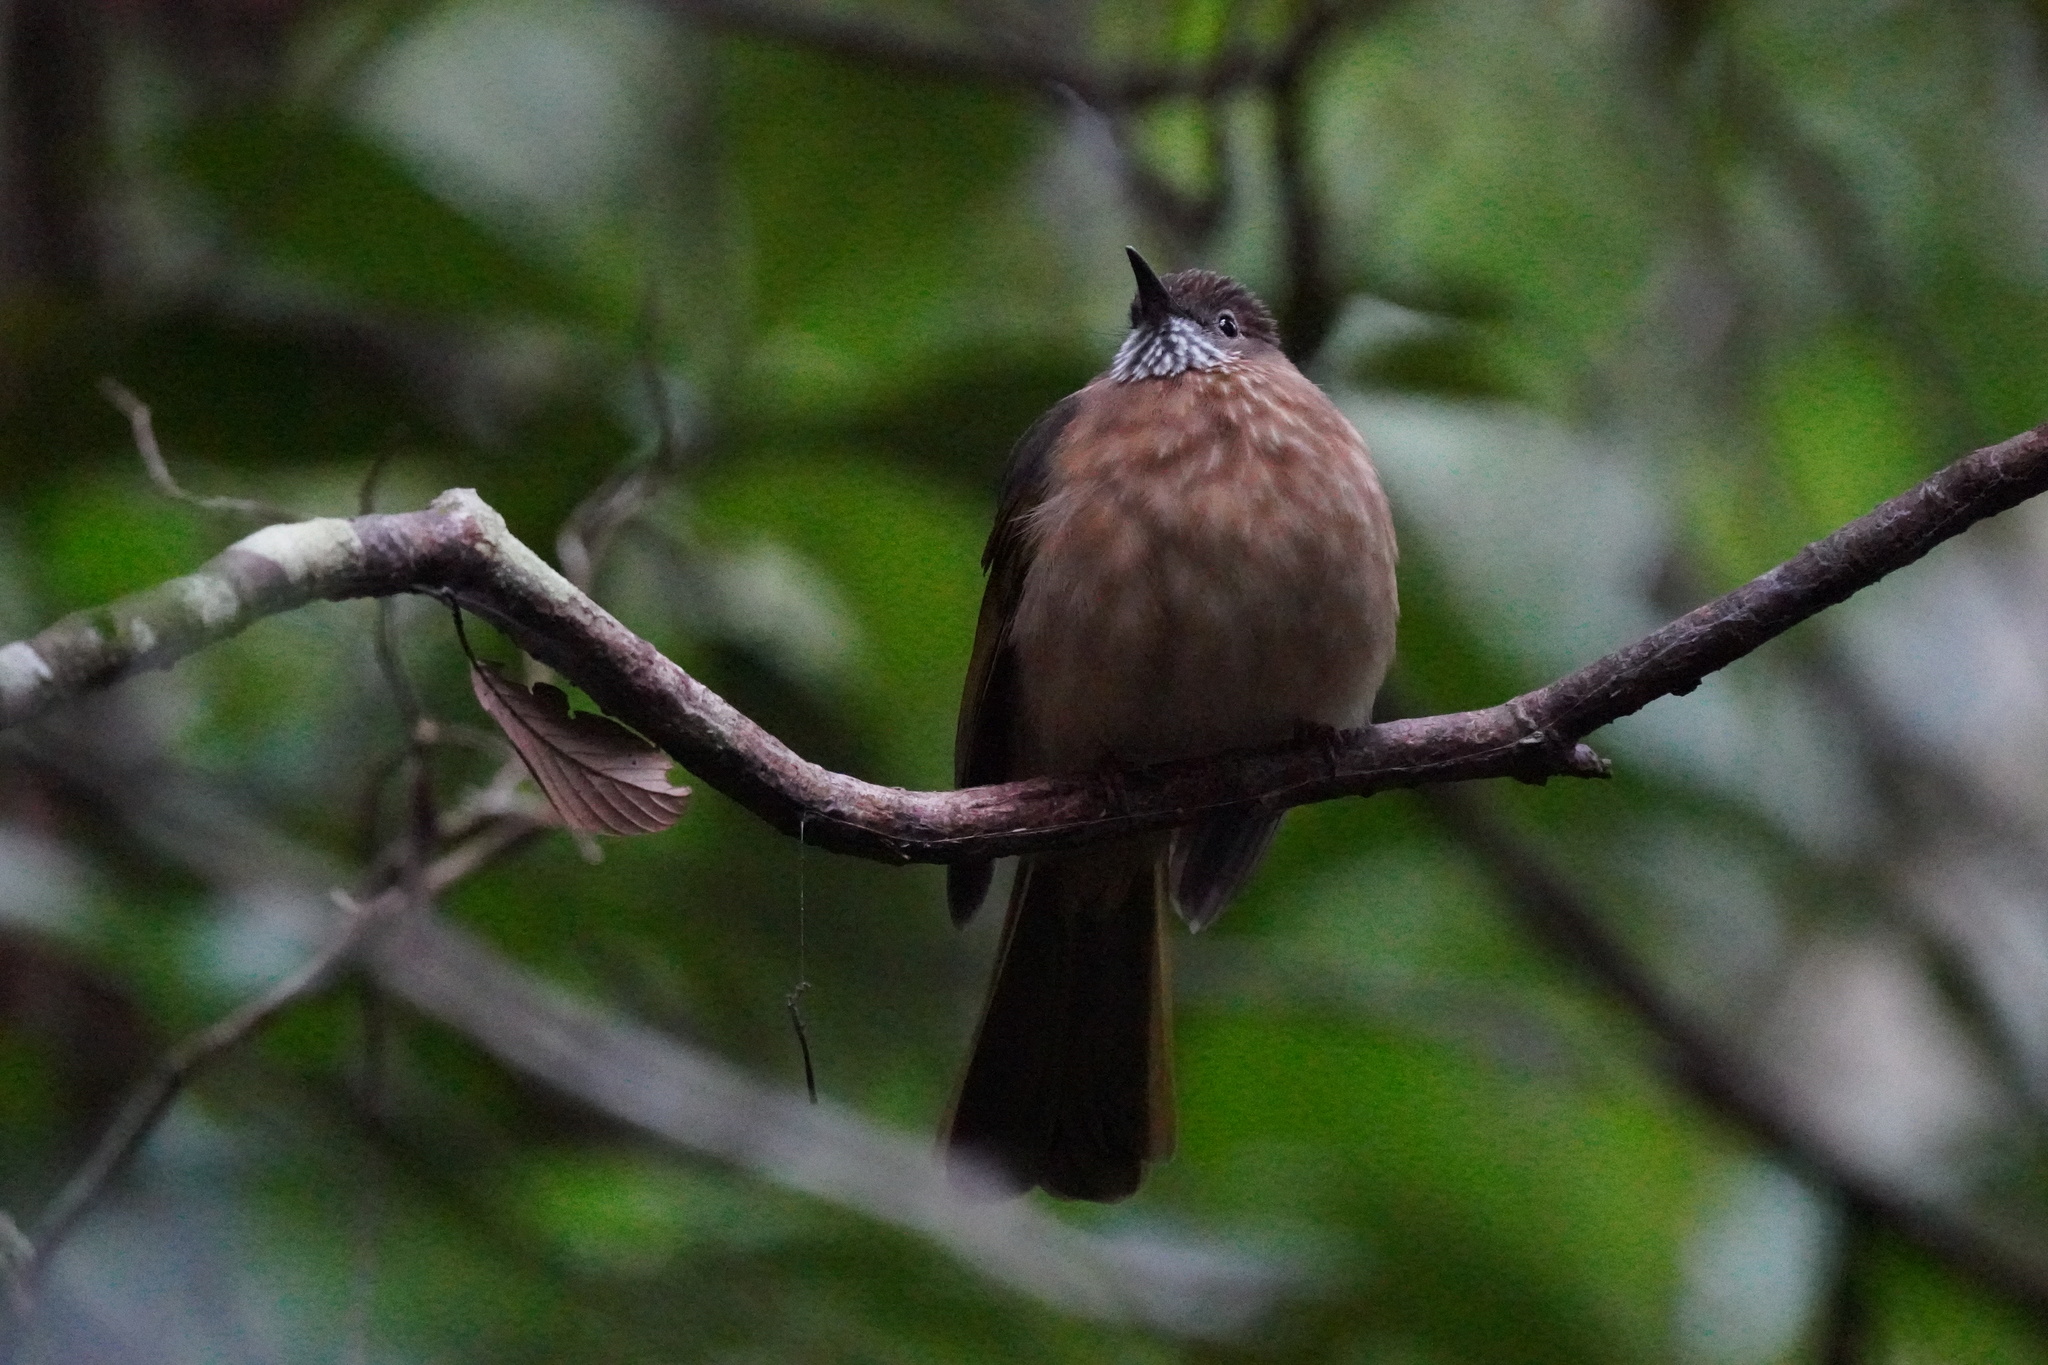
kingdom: Animalia
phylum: Chordata
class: Aves
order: Passeriformes
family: Pycnonotidae
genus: Ixos
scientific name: Ixos mcclellandii
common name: Mountain bulbul
